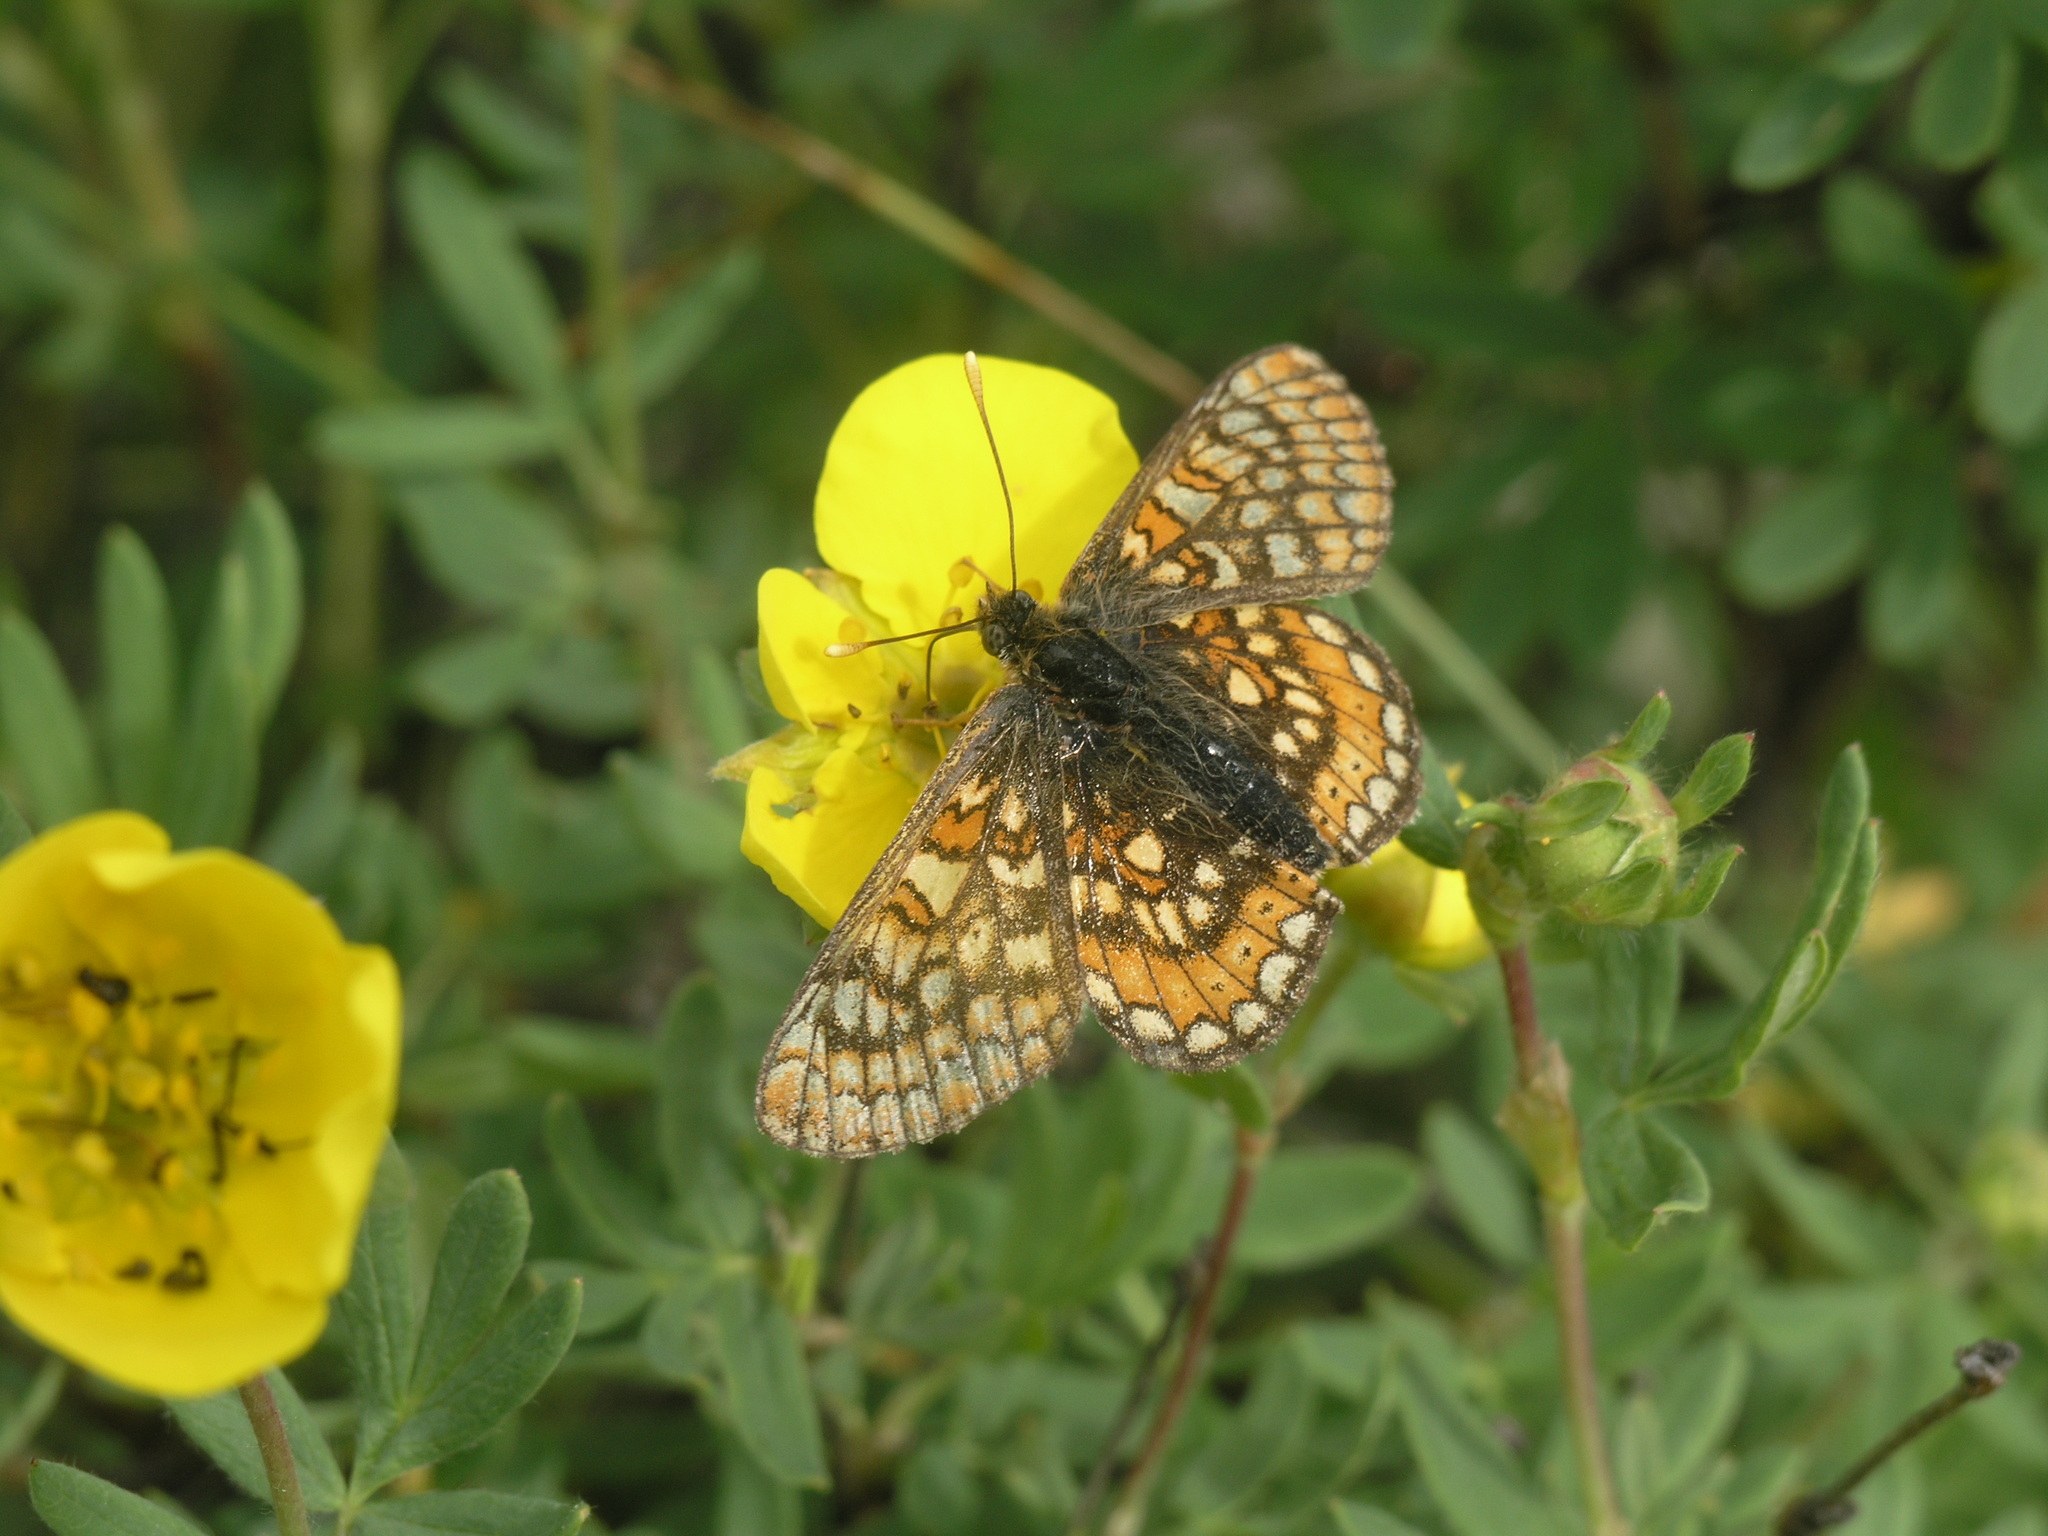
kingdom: Plantae
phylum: Tracheophyta
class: Magnoliopsida
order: Rosales
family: Rosaceae
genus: Dasiphora
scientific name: Dasiphora fruticosa
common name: Shrubby cinquefoil
